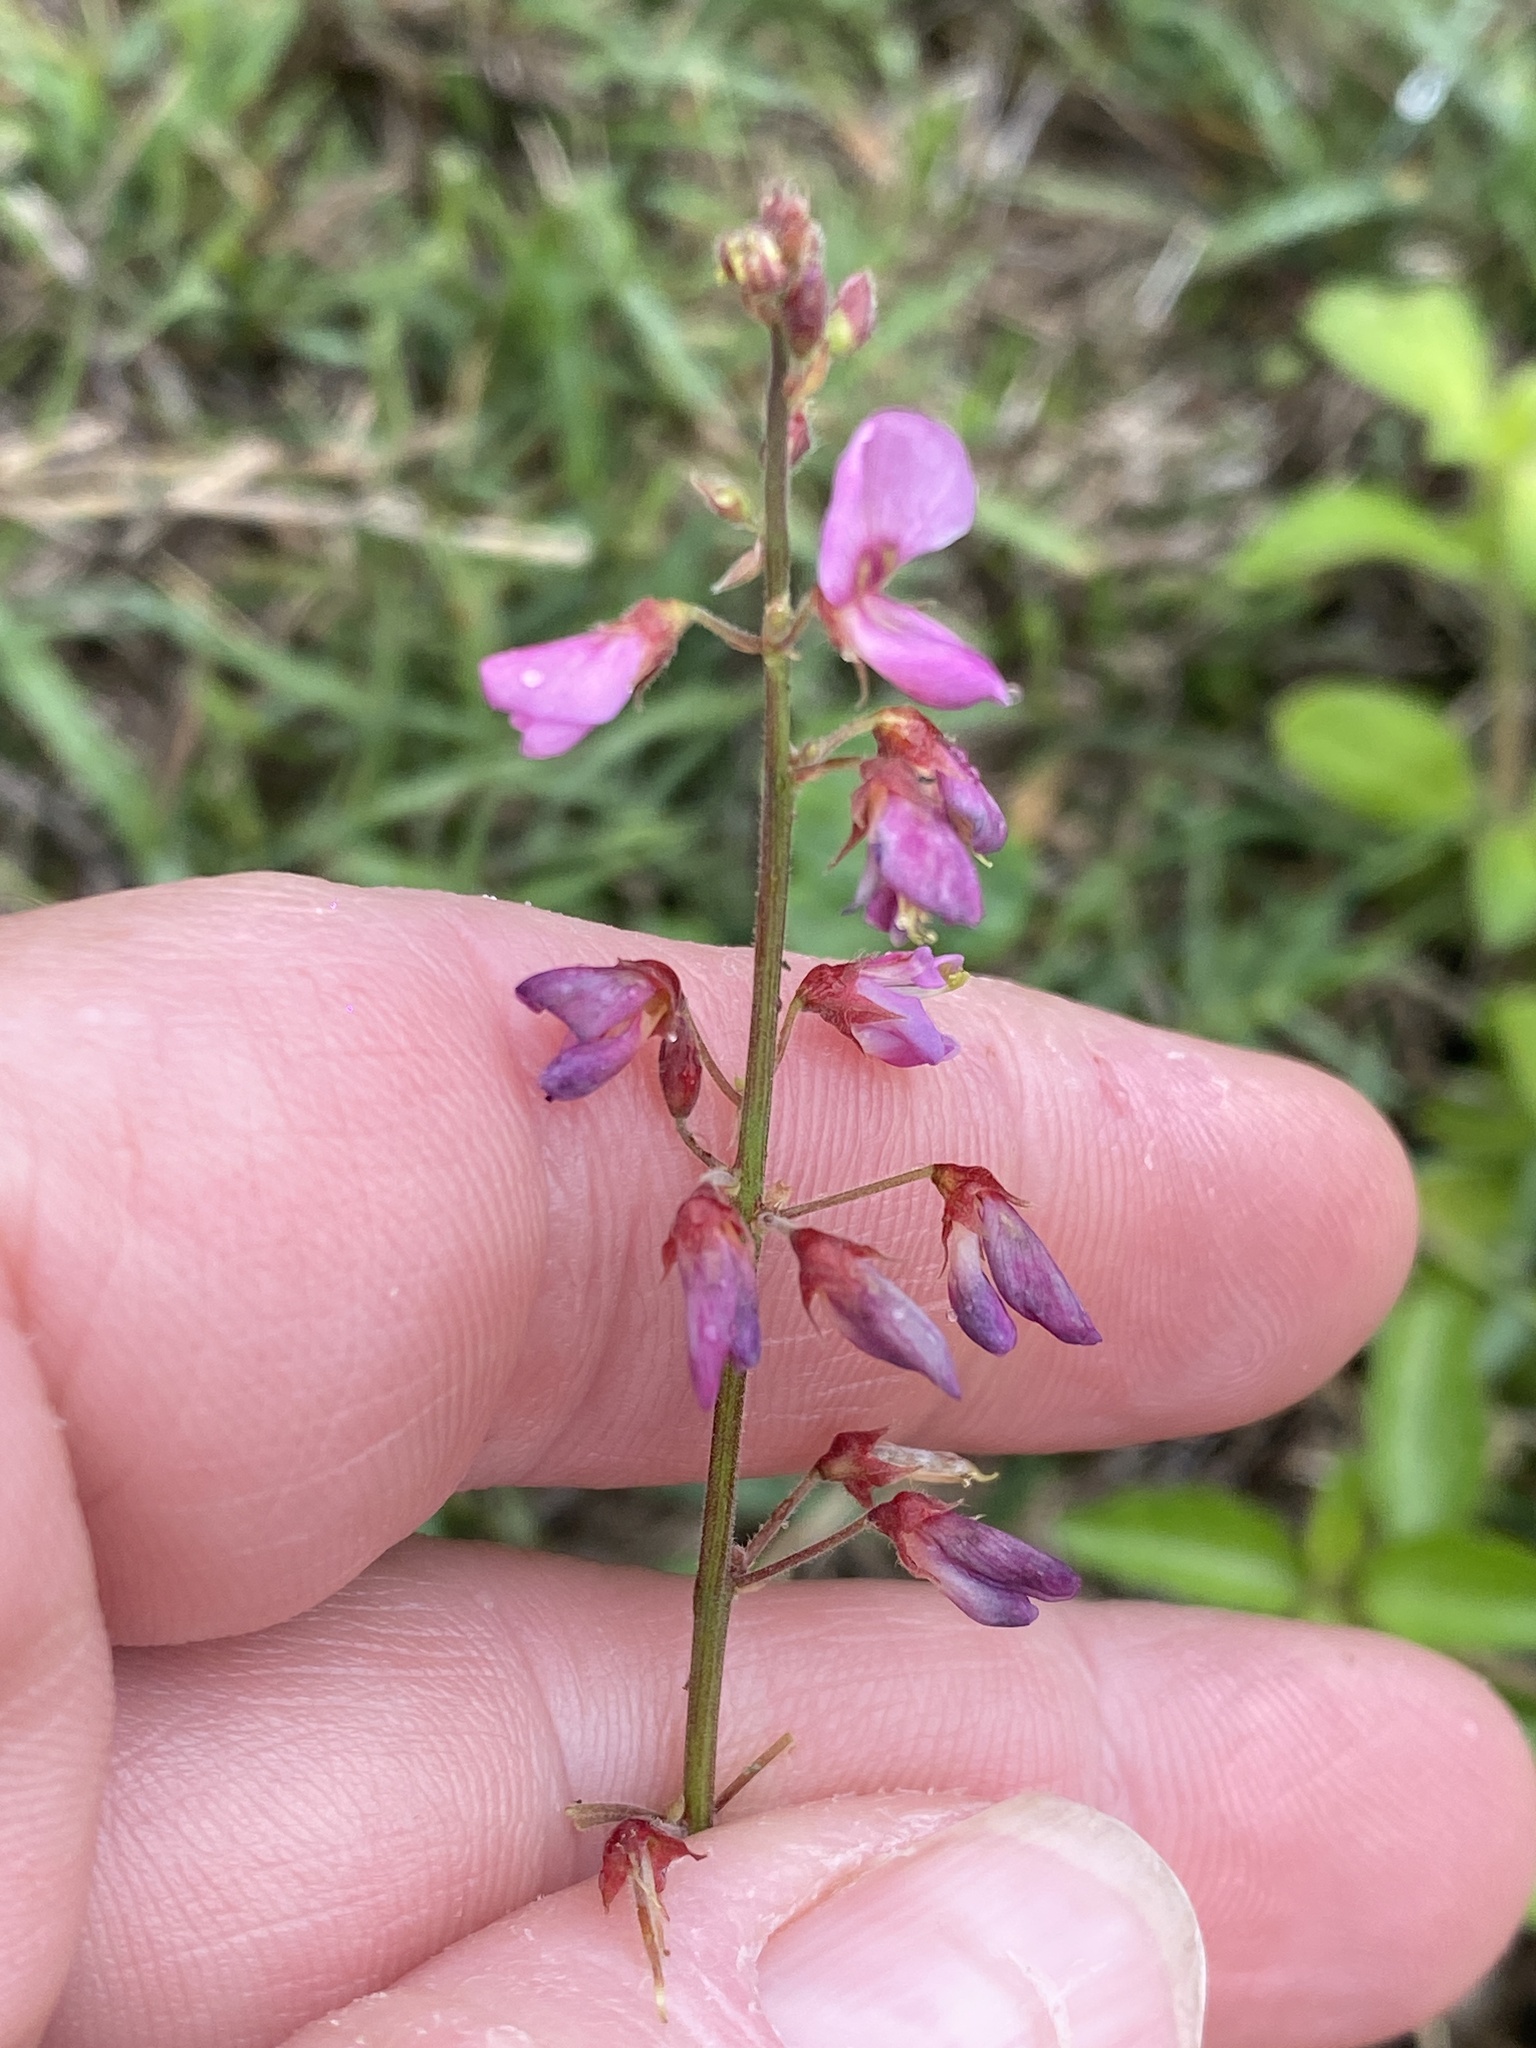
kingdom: Plantae
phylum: Tracheophyta
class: Magnoliopsida
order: Fabales
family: Fabaceae
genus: Desmodium
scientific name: Desmodium incanum
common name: Tickclover
